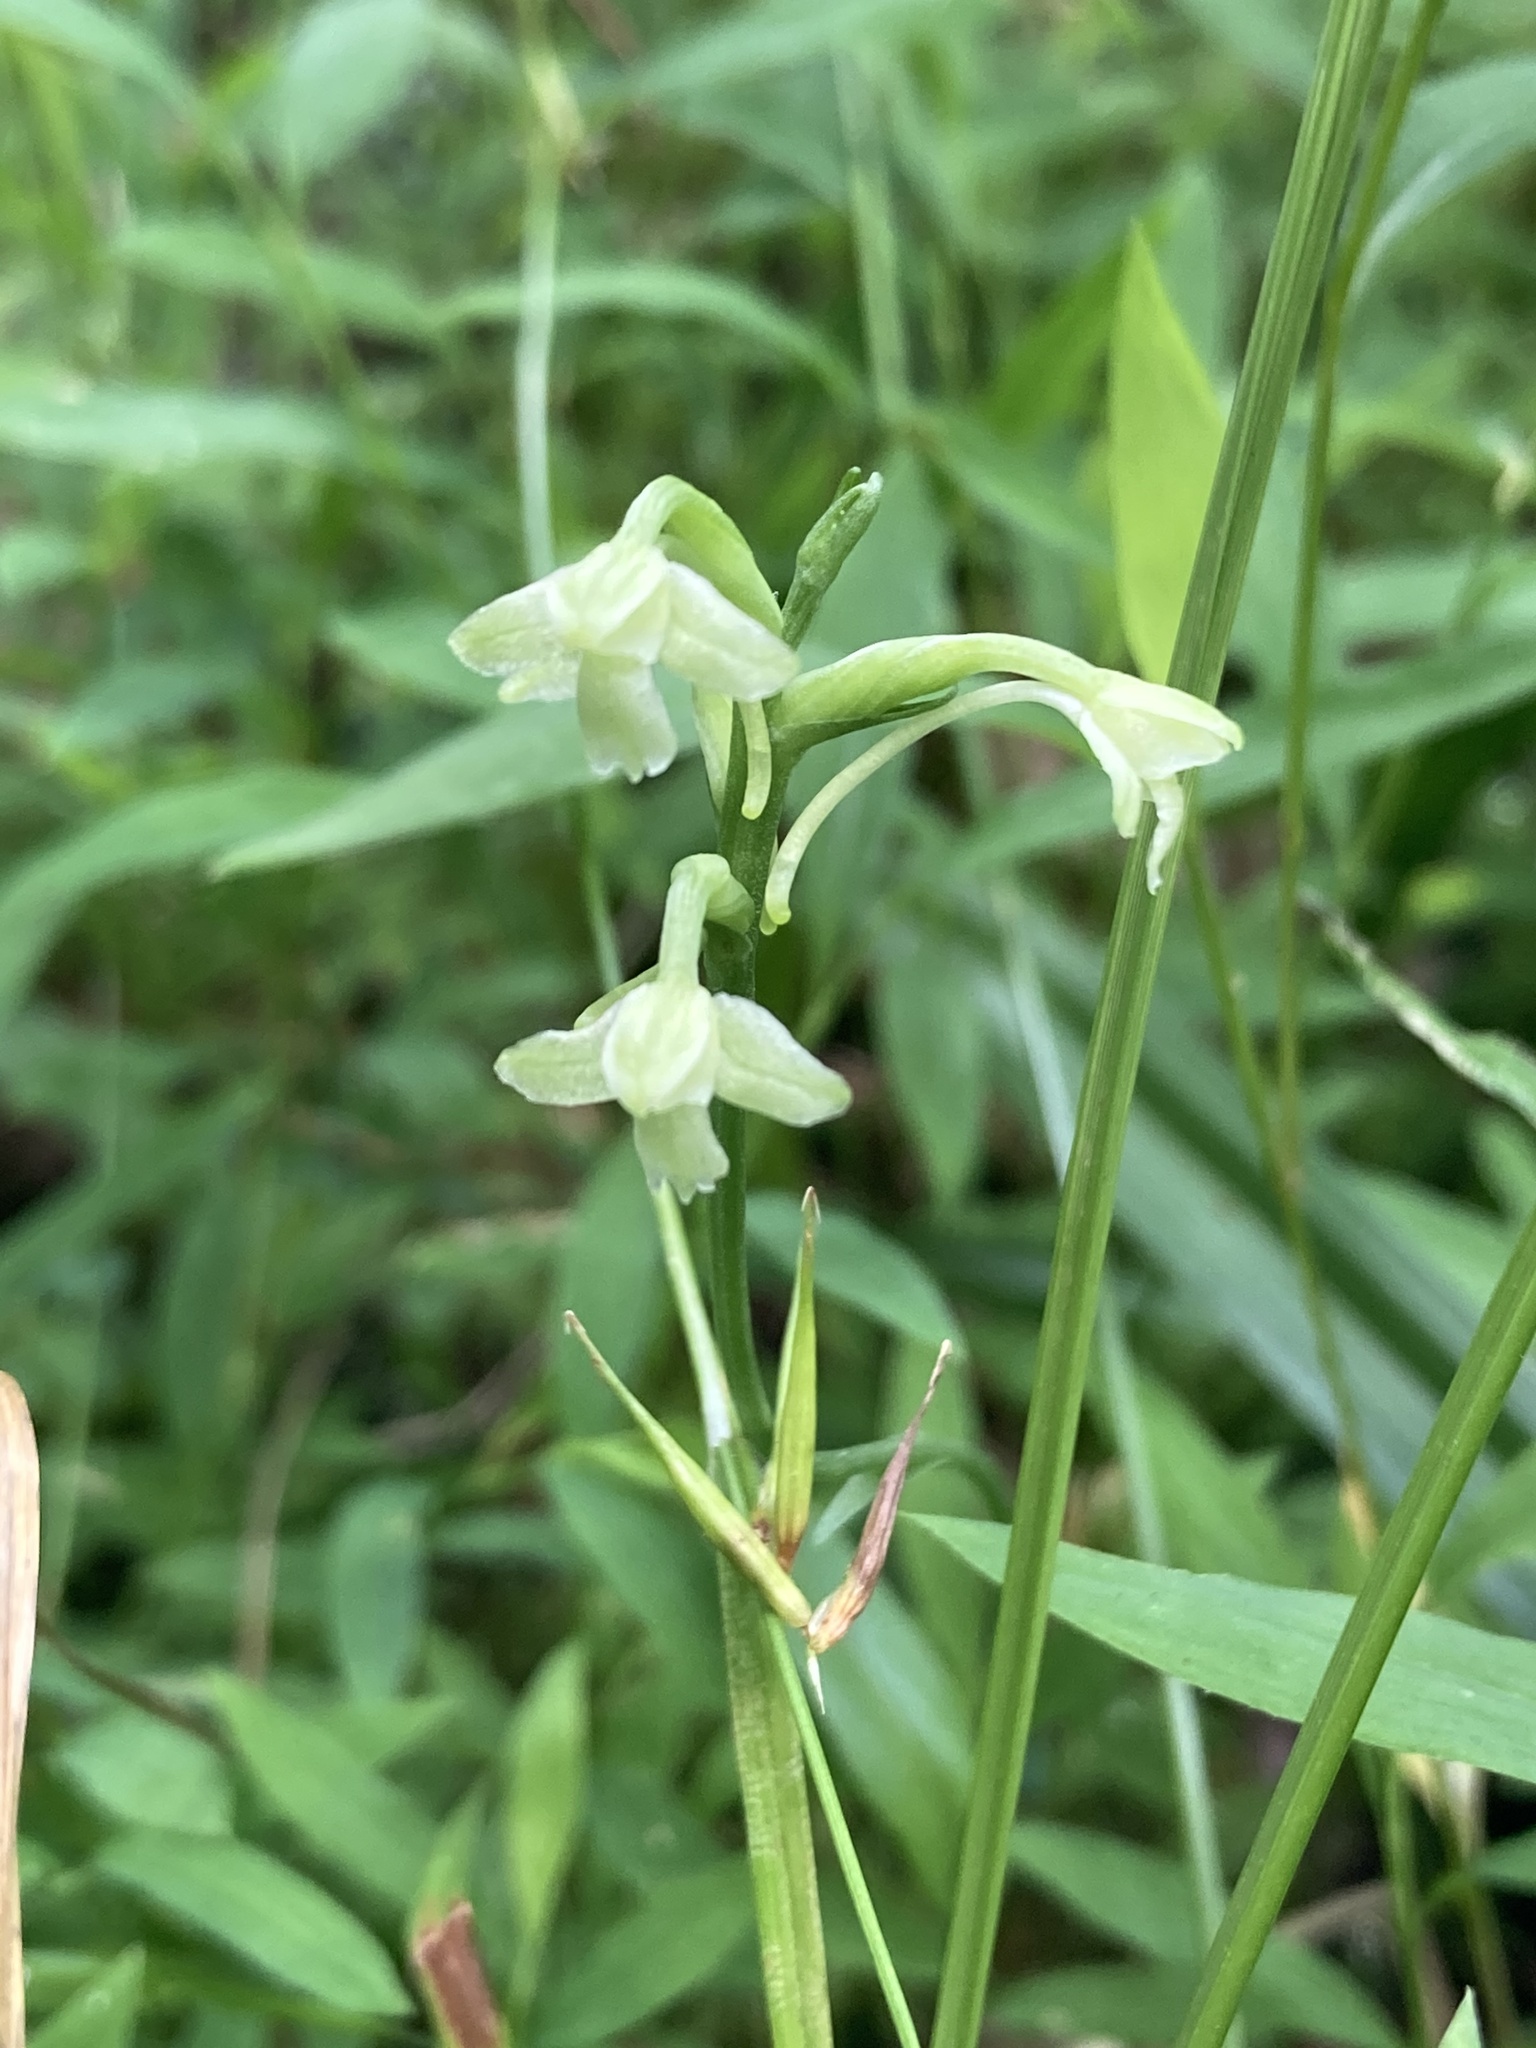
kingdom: Plantae
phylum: Tracheophyta
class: Liliopsida
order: Asparagales
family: Orchidaceae
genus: Platanthera
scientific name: Platanthera clavellata
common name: Club-spur orchid
